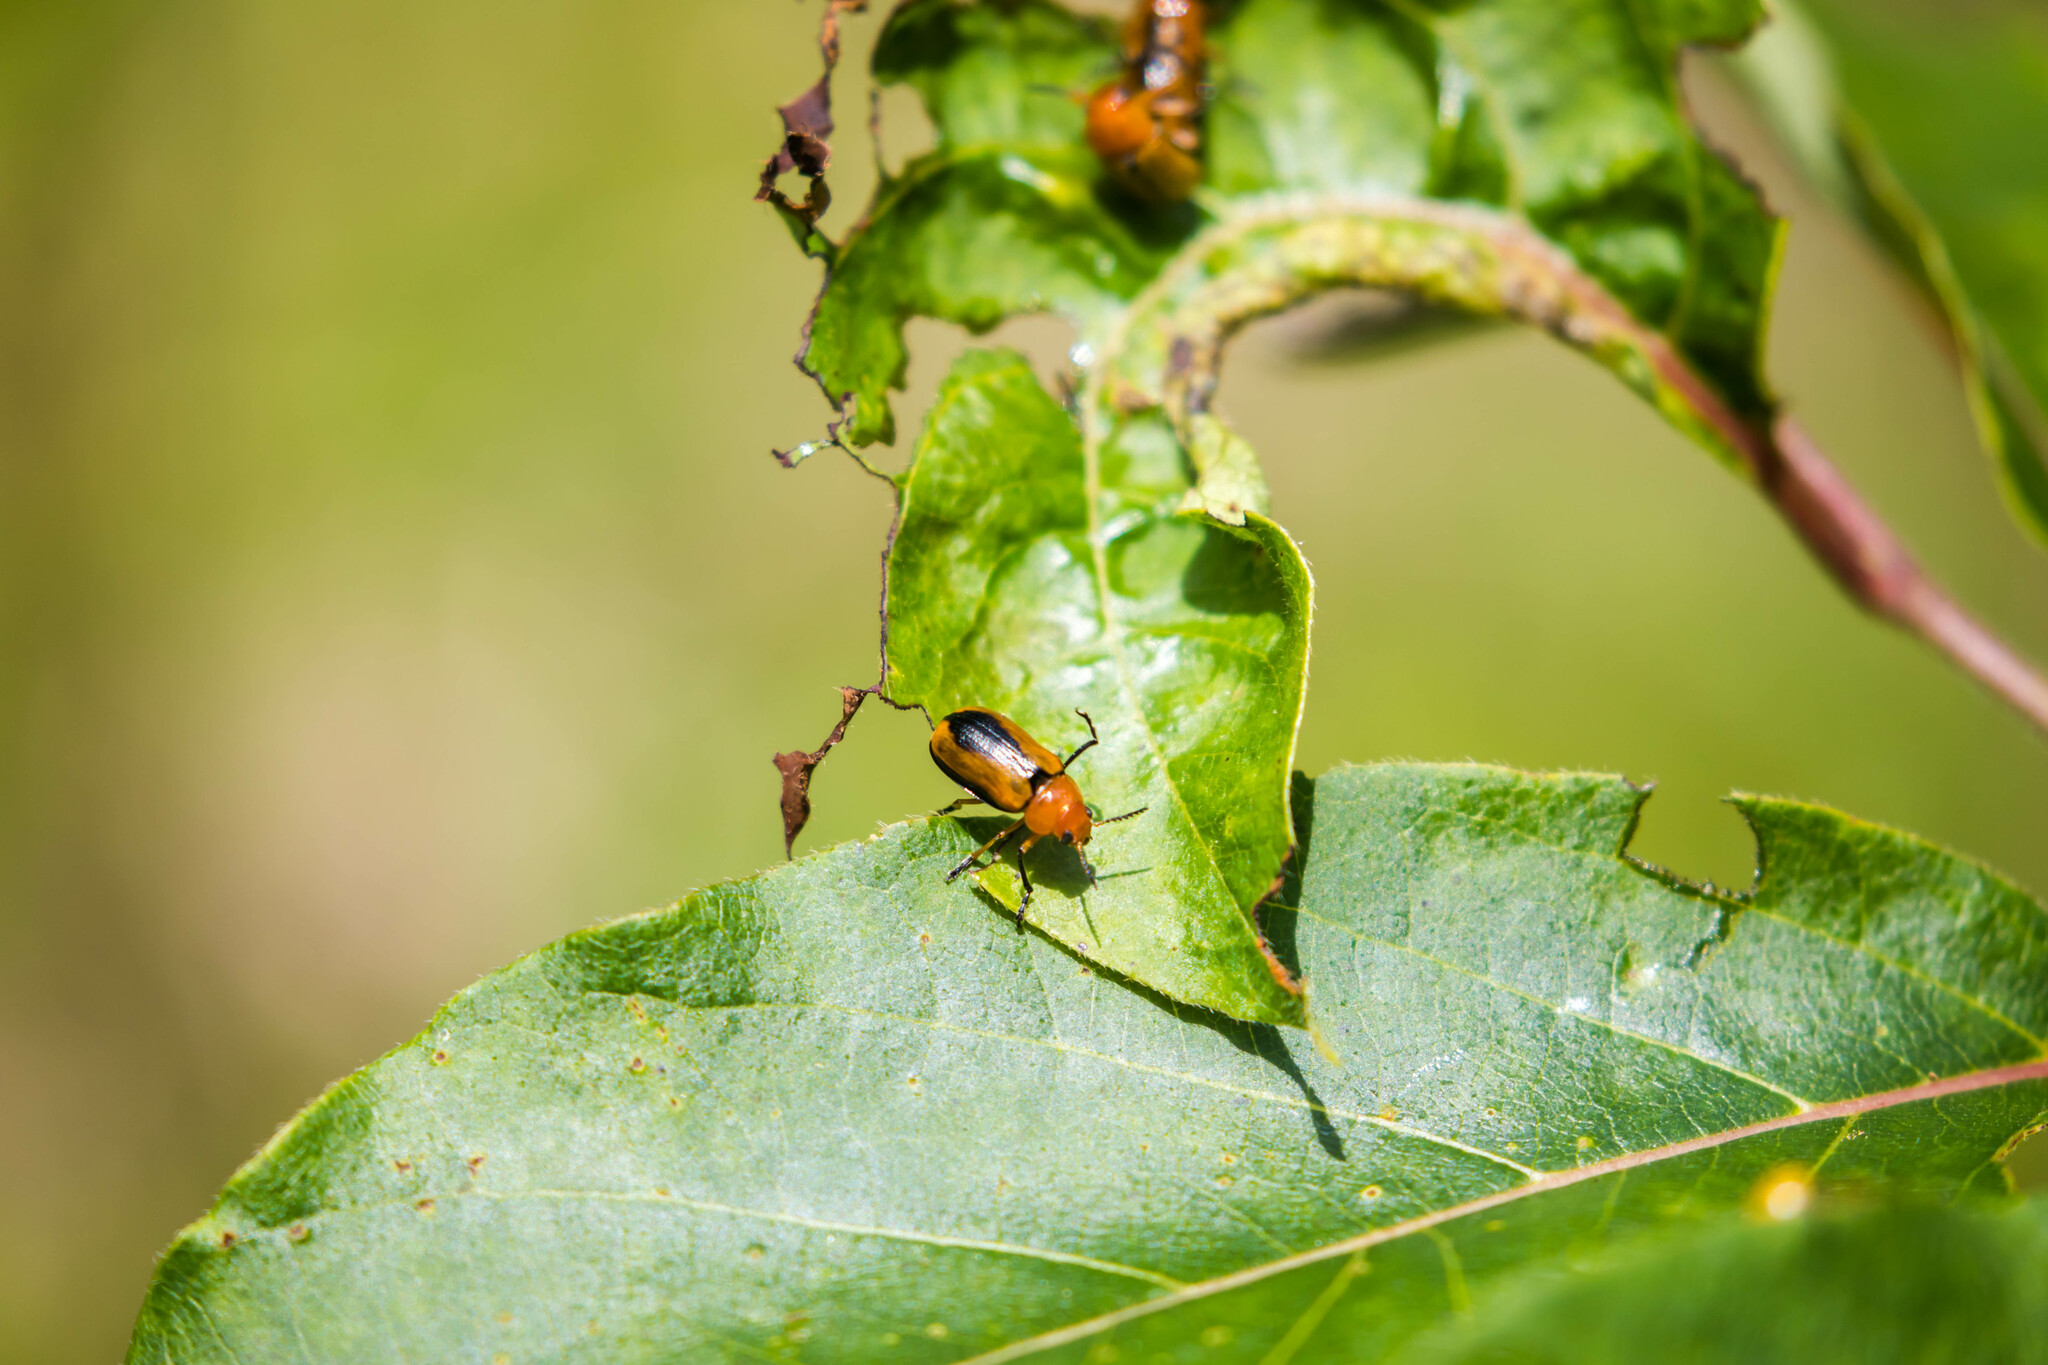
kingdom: Animalia
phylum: Arthropoda
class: Insecta
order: Coleoptera
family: Chrysomelidae
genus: Anomoea
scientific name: Anomoea laticlavia
